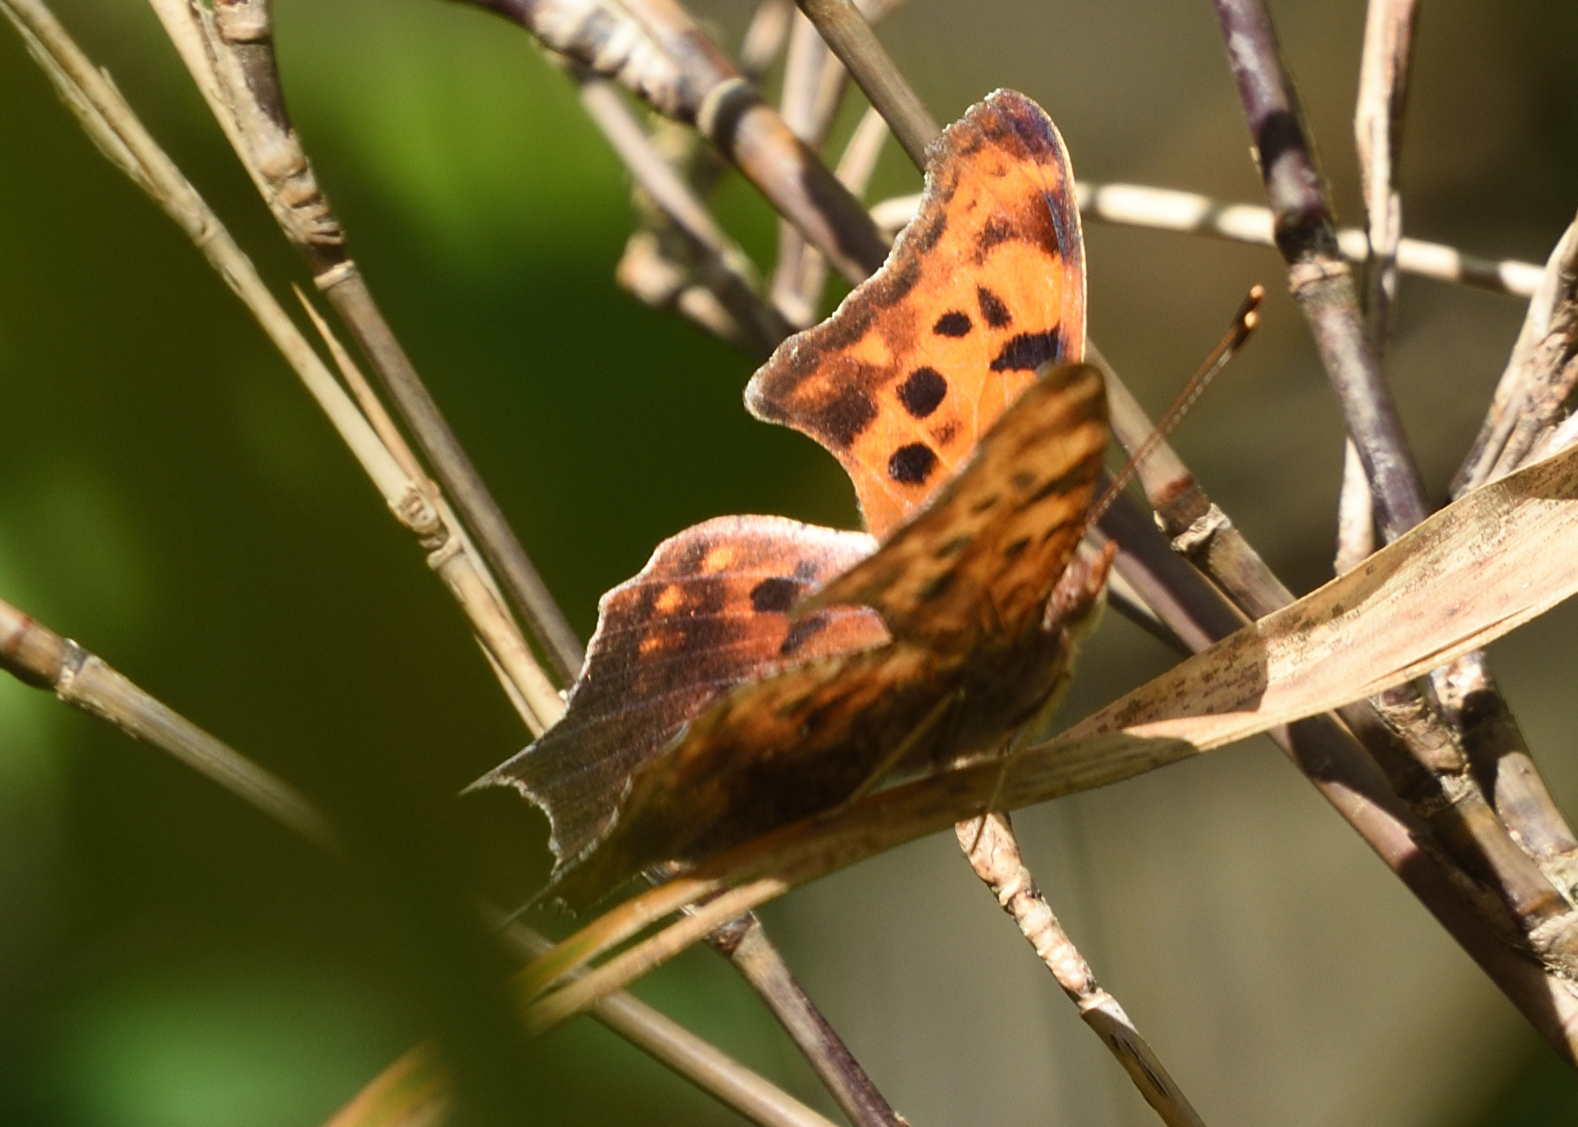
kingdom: Animalia
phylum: Arthropoda
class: Insecta
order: Lepidoptera
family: Nymphalidae
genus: Polygonia
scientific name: Polygonia interrogationis
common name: Question mark
